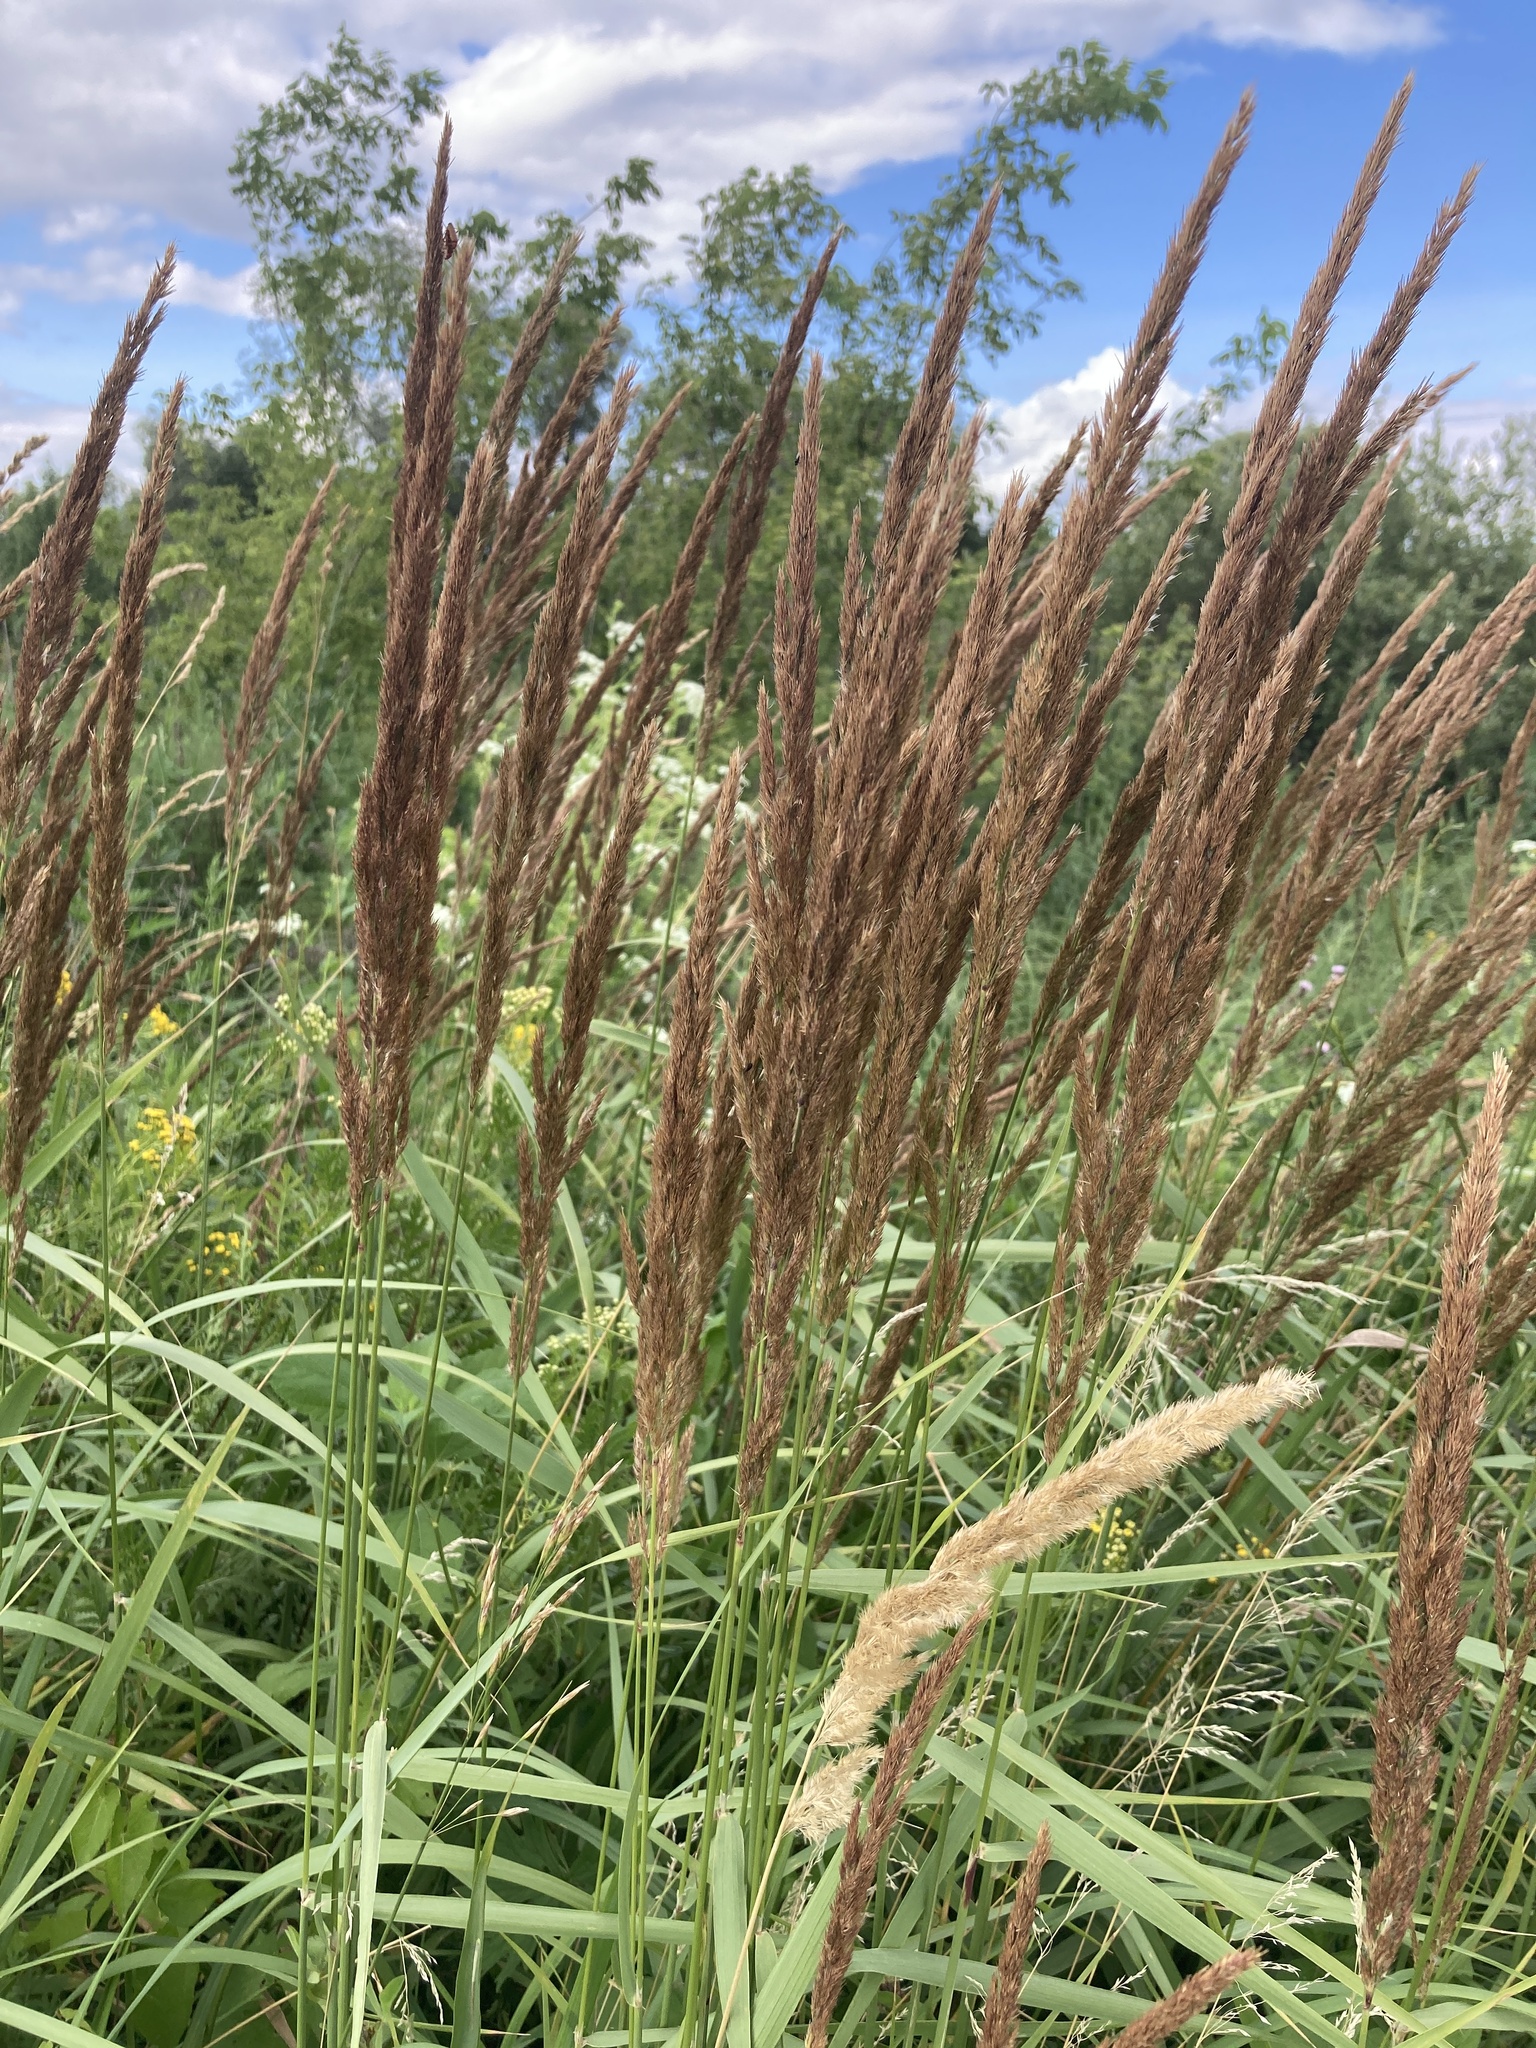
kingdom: Plantae
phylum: Tracheophyta
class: Liliopsida
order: Poales
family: Poaceae
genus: Calamagrostis
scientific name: Calamagrostis epigejos
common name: Wood small-reed
